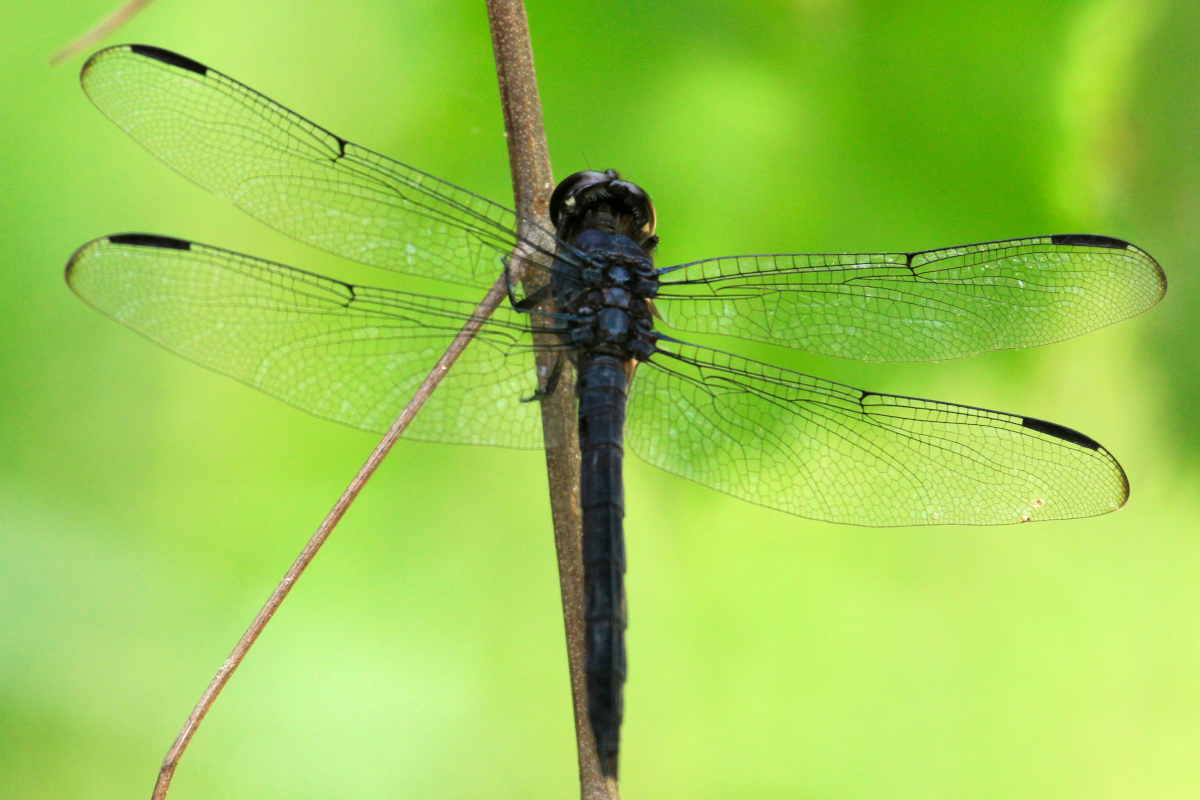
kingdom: Animalia
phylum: Arthropoda
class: Insecta
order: Odonata
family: Libellulidae
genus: Libellula
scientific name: Libellula incesta
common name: Slaty skimmer
